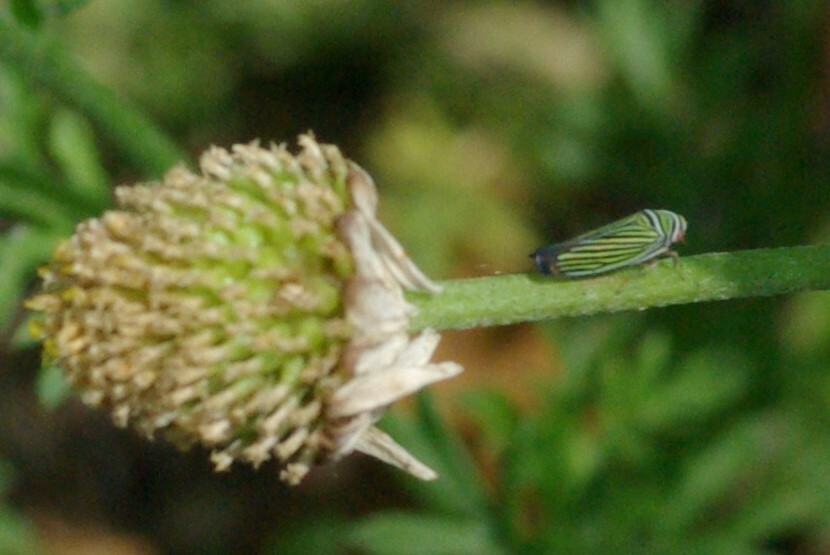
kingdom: Animalia
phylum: Arthropoda
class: Insecta
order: Hemiptera
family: Cicadellidae
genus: Tylozygus
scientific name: Tylozygus bifidus
